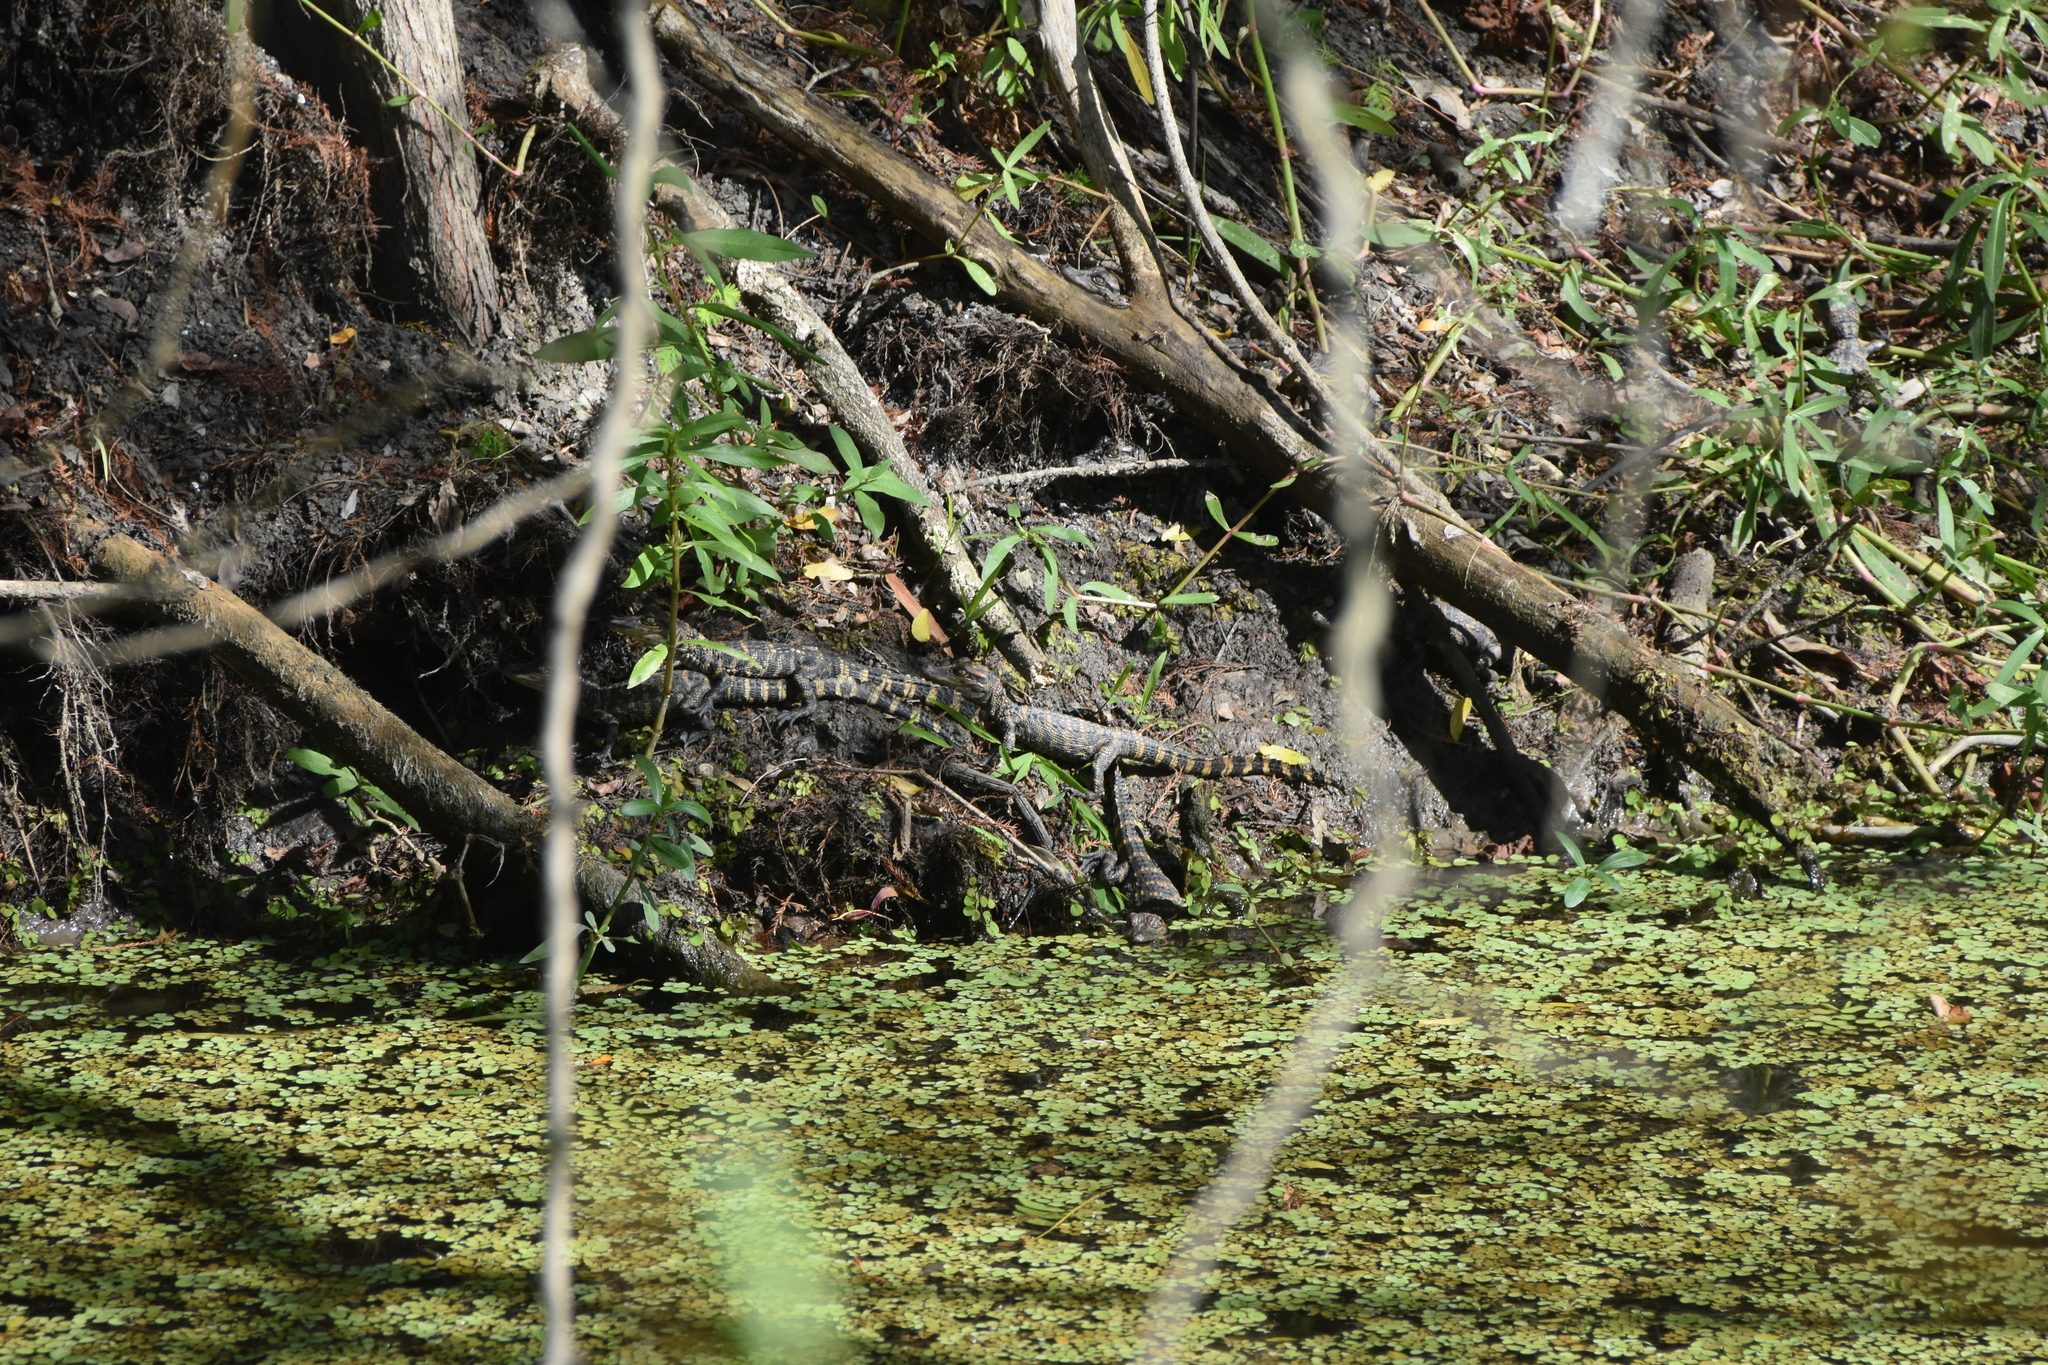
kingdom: Animalia
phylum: Chordata
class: Crocodylia
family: Alligatoridae
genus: Alligator
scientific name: Alligator mississippiensis
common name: American alligator
